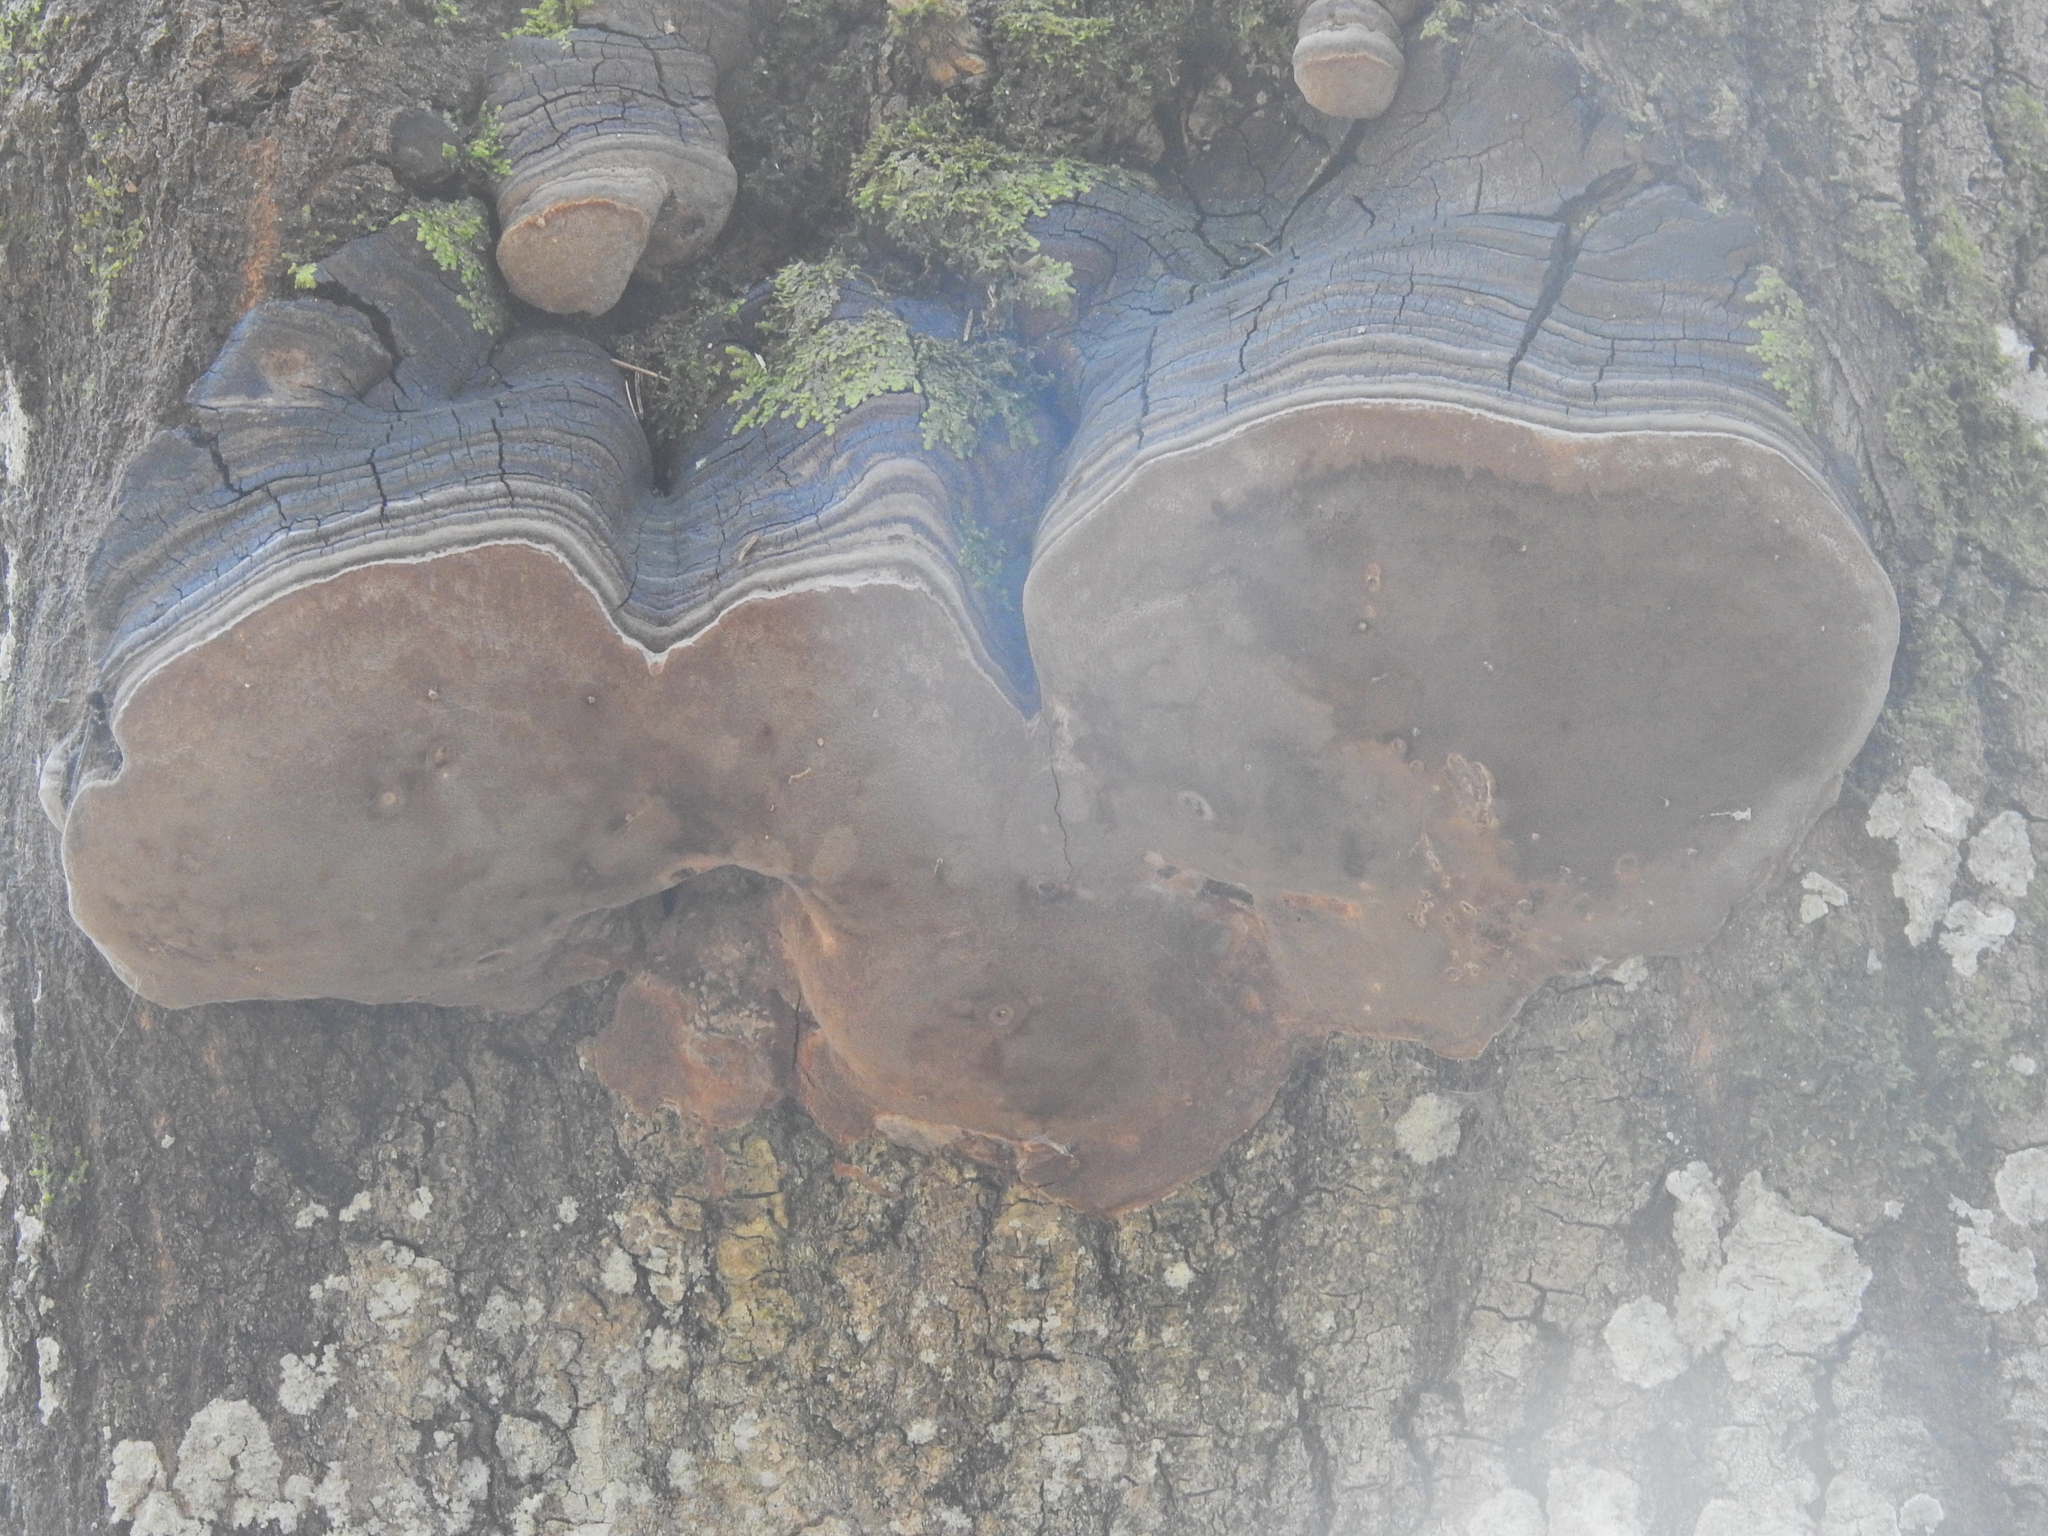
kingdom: Plantae
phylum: Tracheophyta
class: Magnoliopsida
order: Malpighiales
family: Salicaceae
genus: Populus
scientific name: Populus tremula
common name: European aspen
